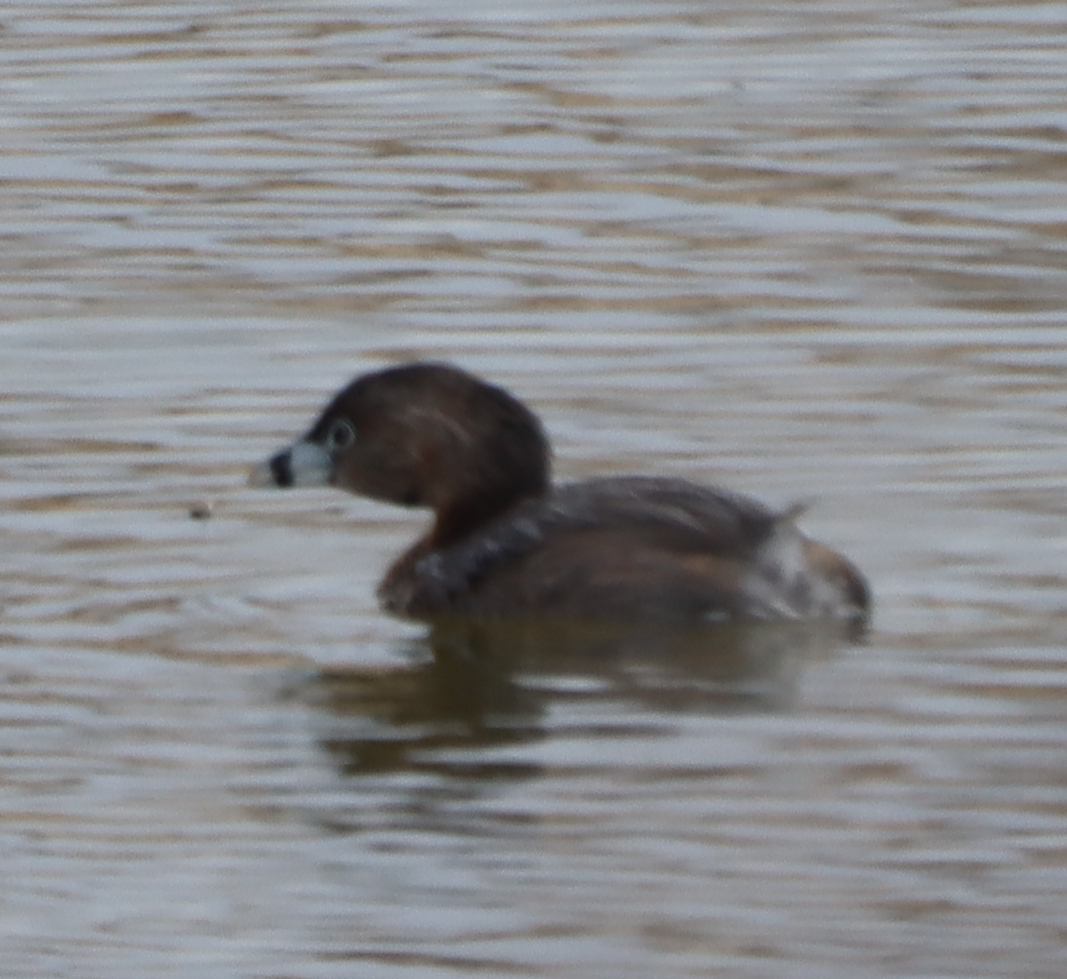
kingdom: Animalia
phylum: Chordata
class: Aves
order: Podicipediformes
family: Podicipedidae
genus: Podilymbus
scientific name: Podilymbus podiceps
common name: Pied-billed grebe
